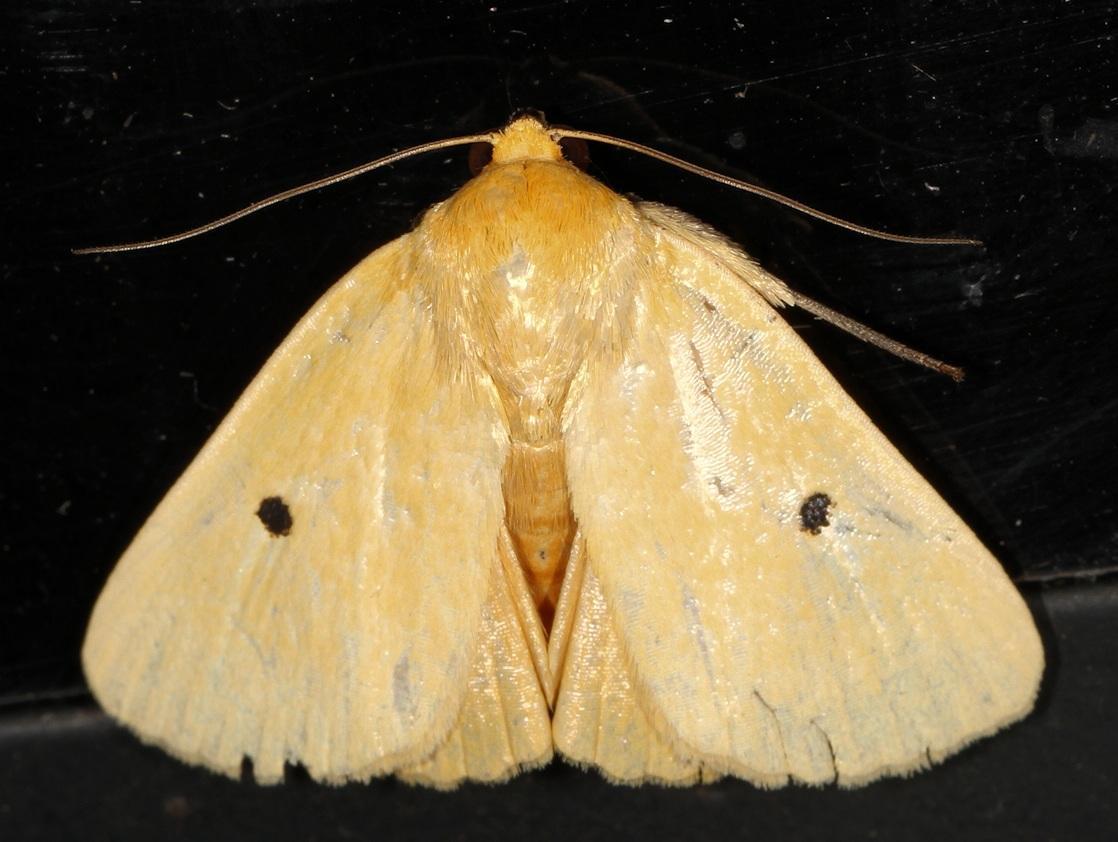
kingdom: Animalia
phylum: Arthropoda
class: Insecta
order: Lepidoptera
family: Nolidae
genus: Leocyma
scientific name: Leocyma appollinis
